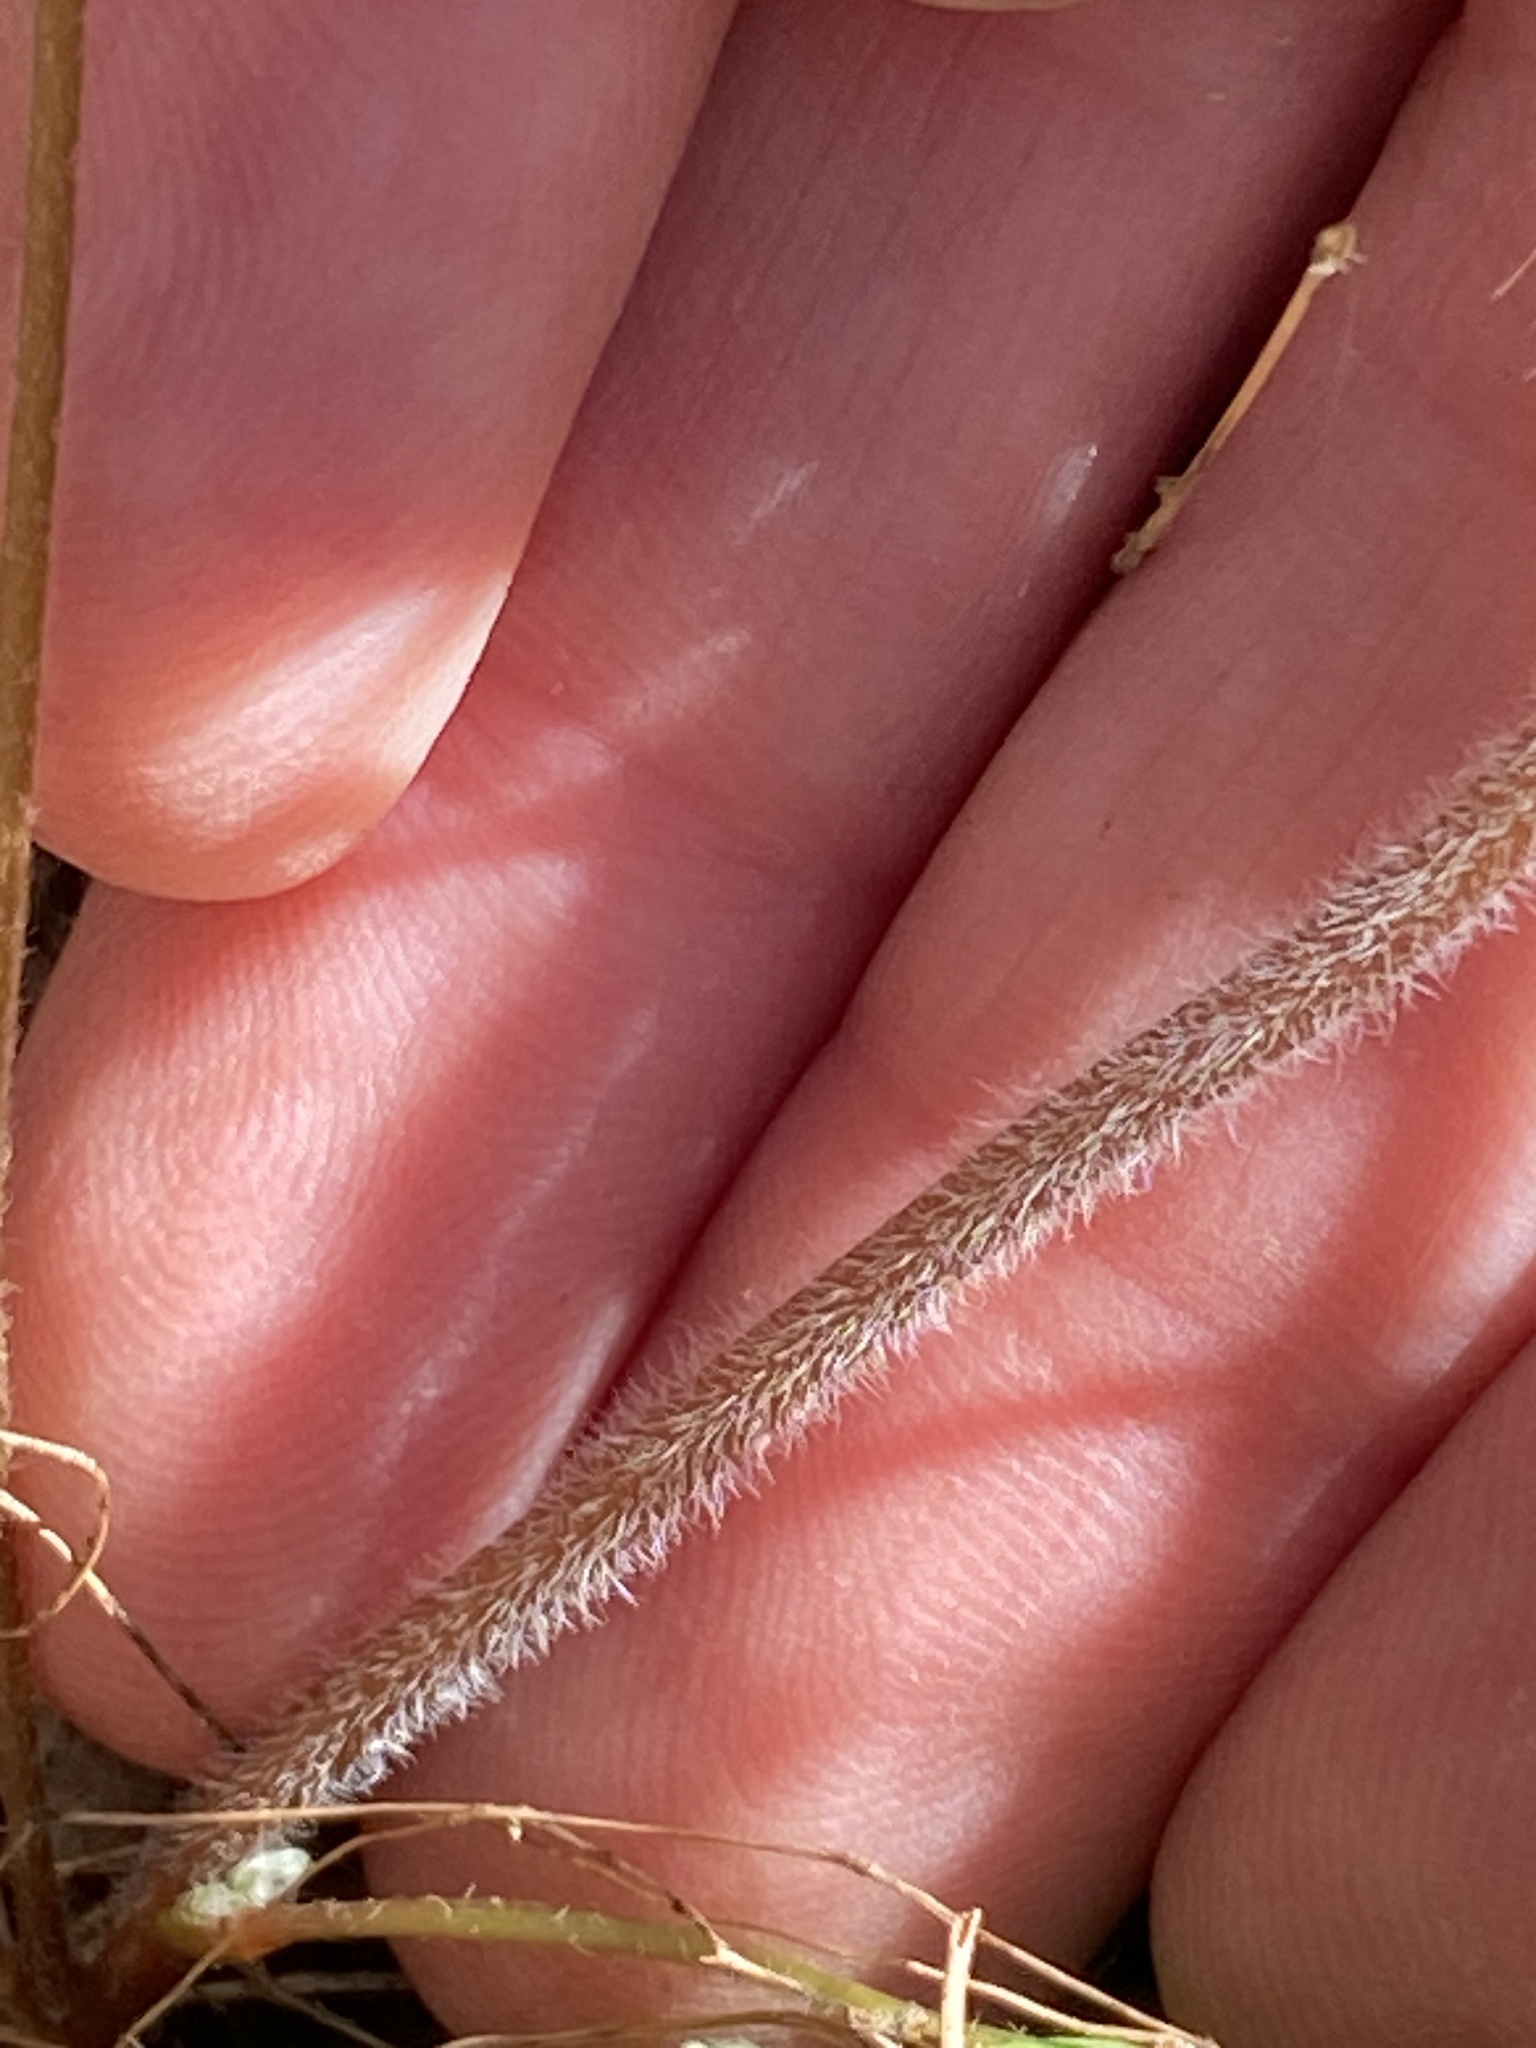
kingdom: Plantae
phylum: Tracheophyta
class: Magnoliopsida
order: Oxalidales
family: Oxalidaceae
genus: Oxalis
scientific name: Oxalis colorea
